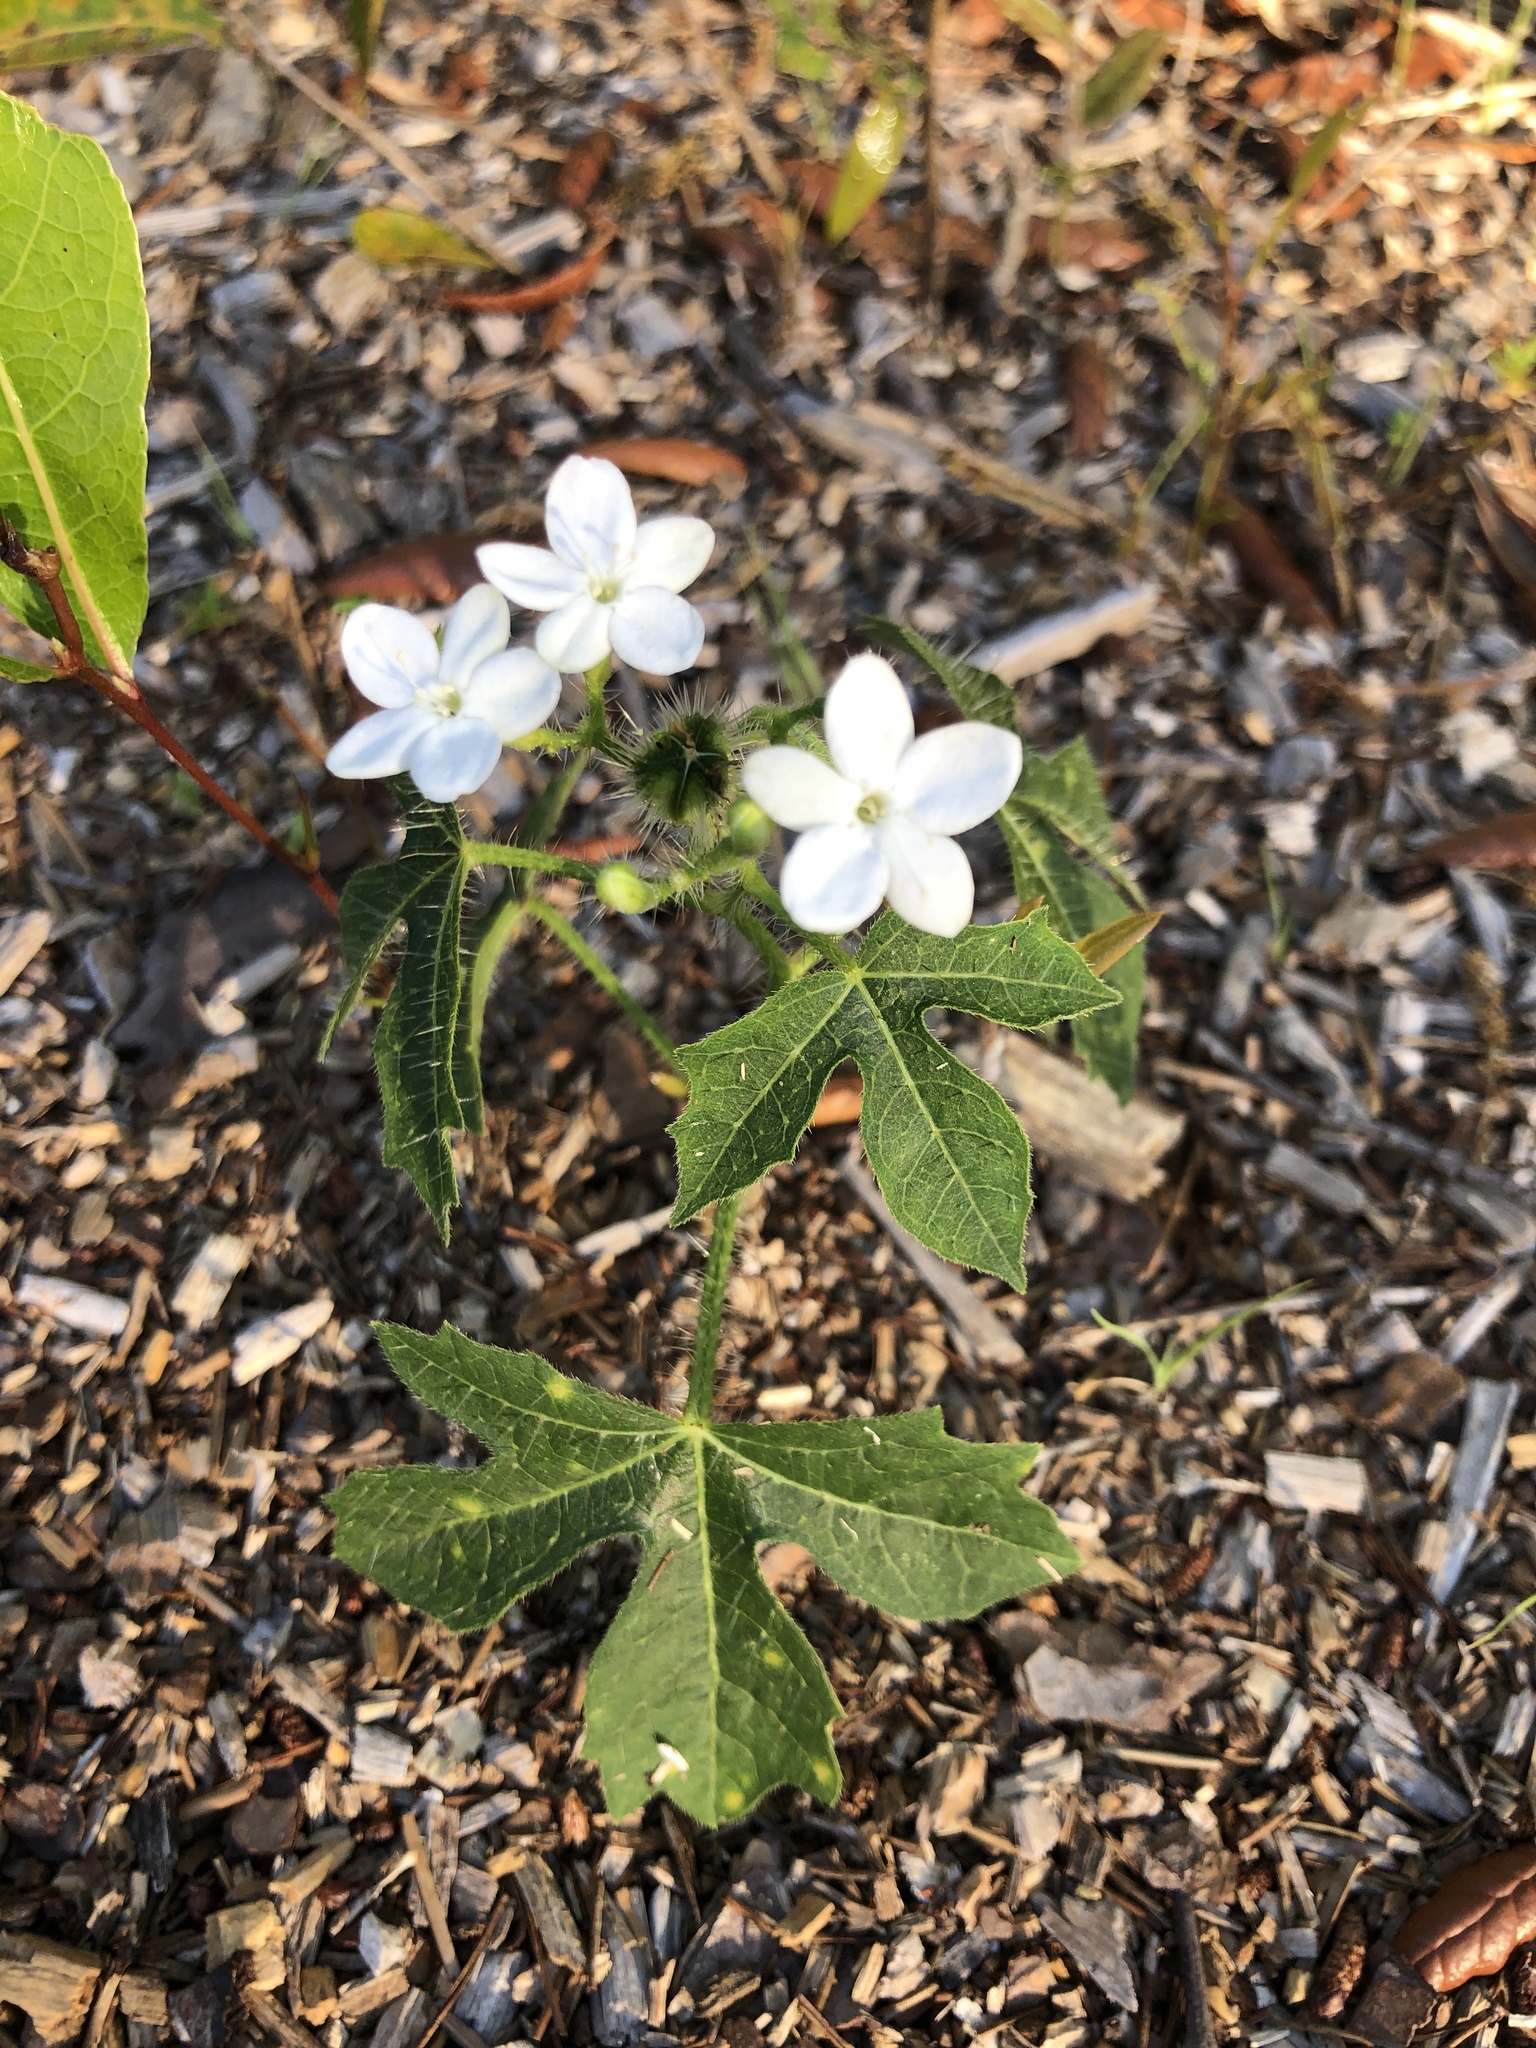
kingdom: Plantae
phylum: Tracheophyta
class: Magnoliopsida
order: Malpighiales
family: Euphorbiaceae
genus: Cnidoscolus
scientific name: Cnidoscolus stimulosus
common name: Bull-nettle
